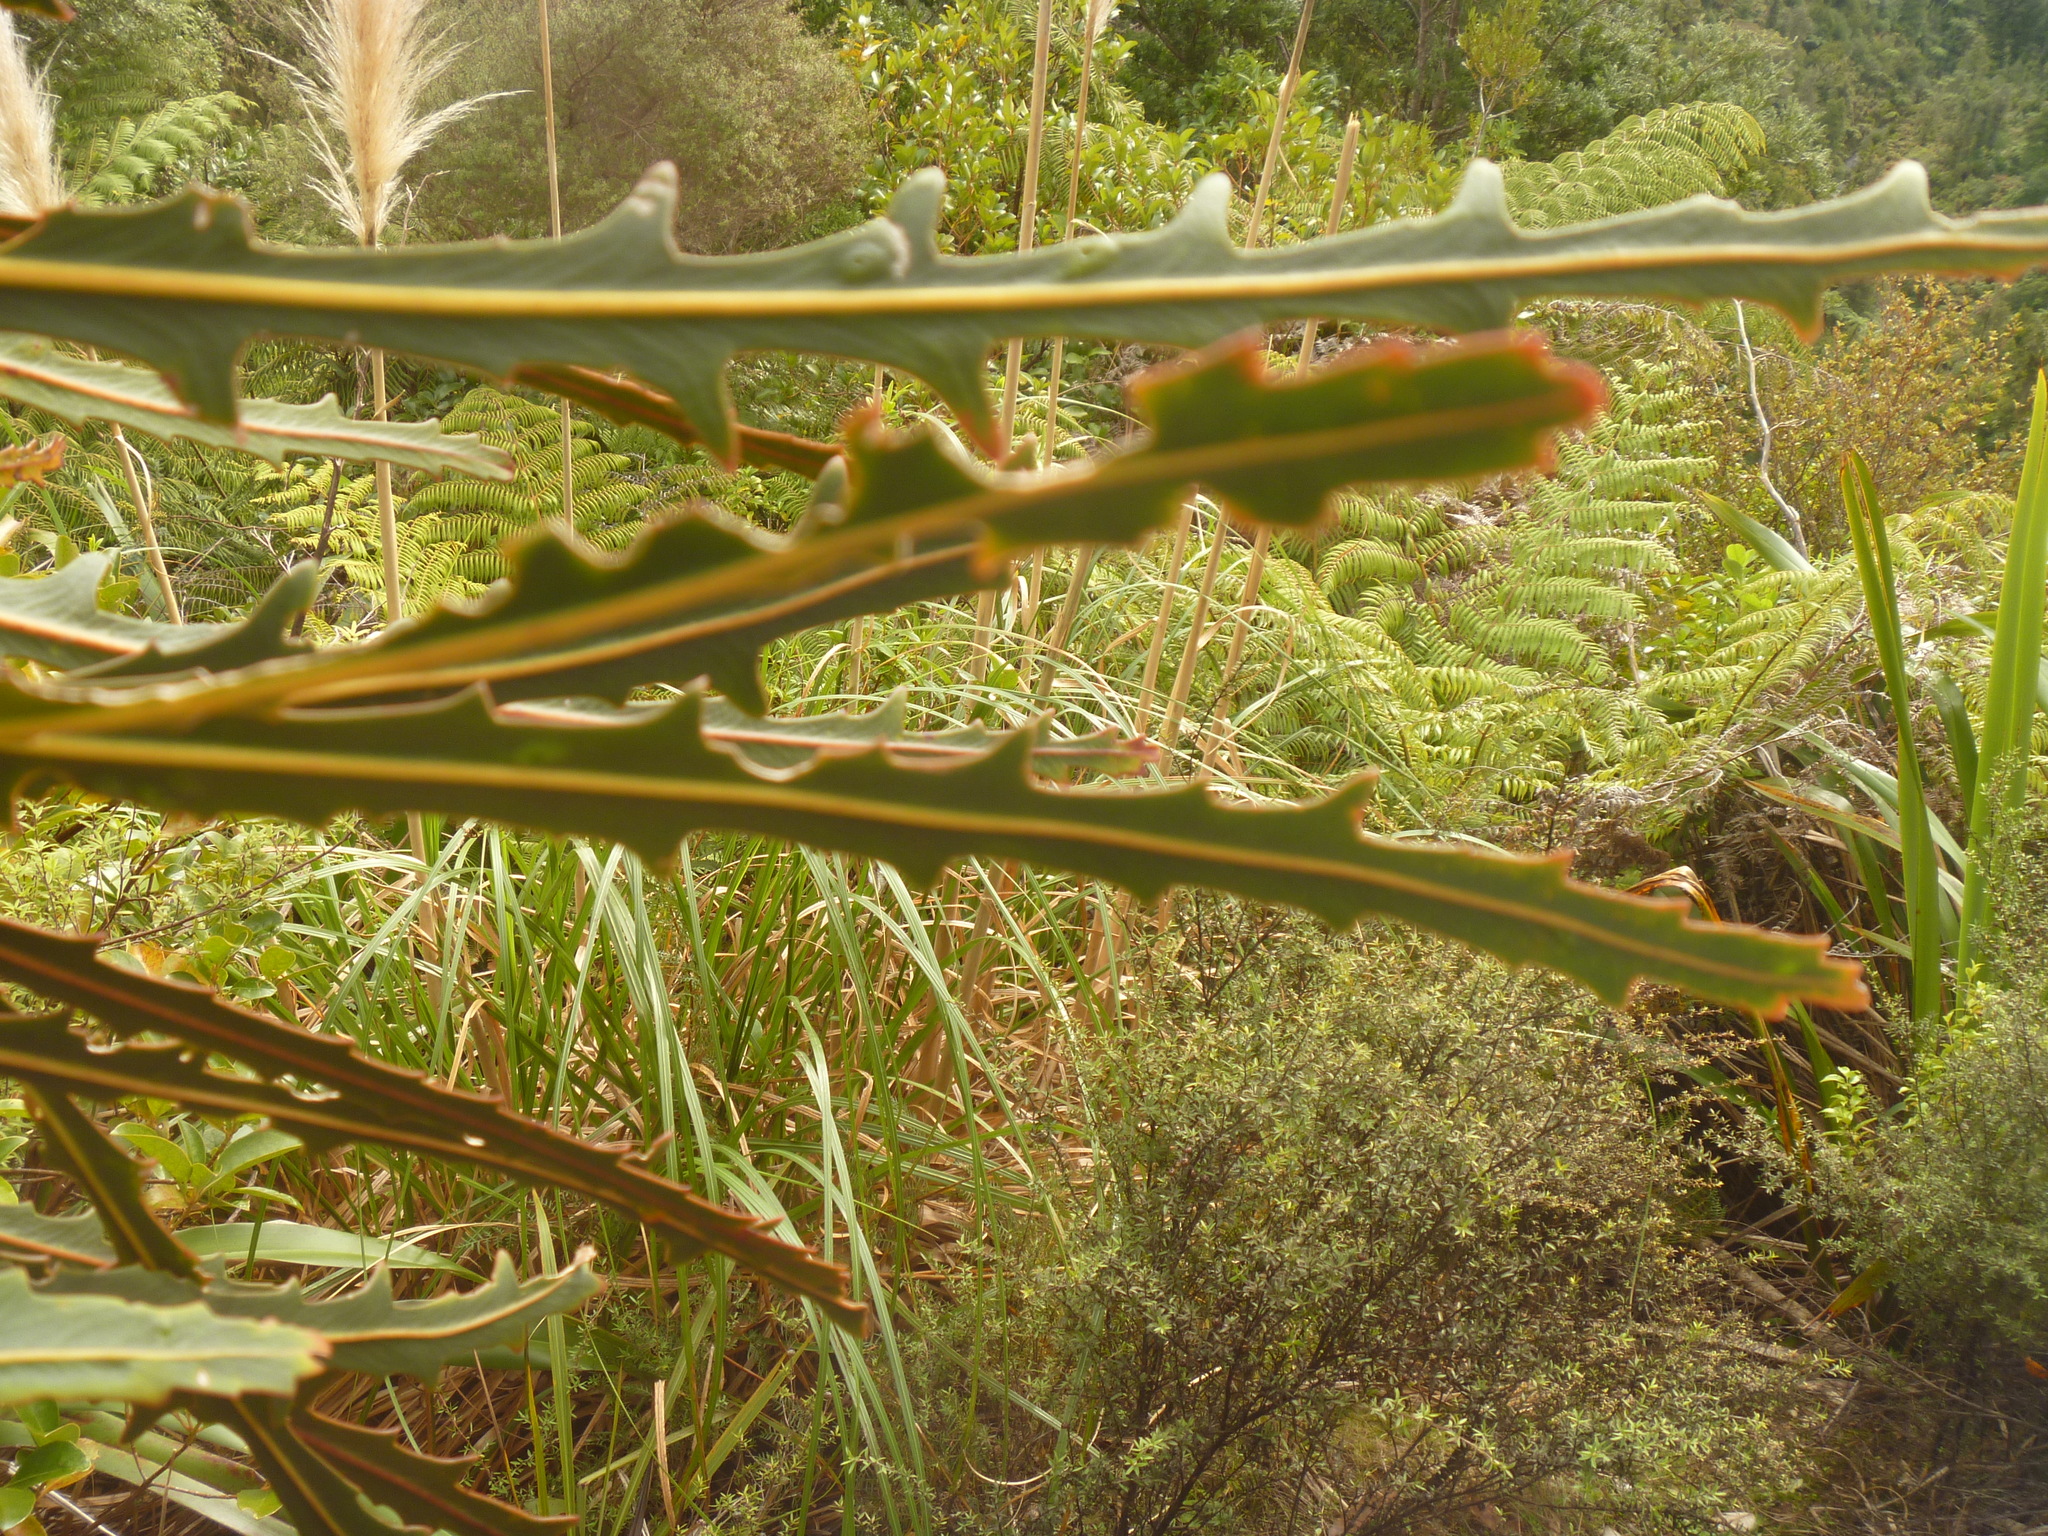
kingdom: Plantae
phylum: Tracheophyta
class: Magnoliopsida
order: Apiales
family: Araliaceae
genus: Pseudopanax
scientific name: Pseudopanax crassifolius
